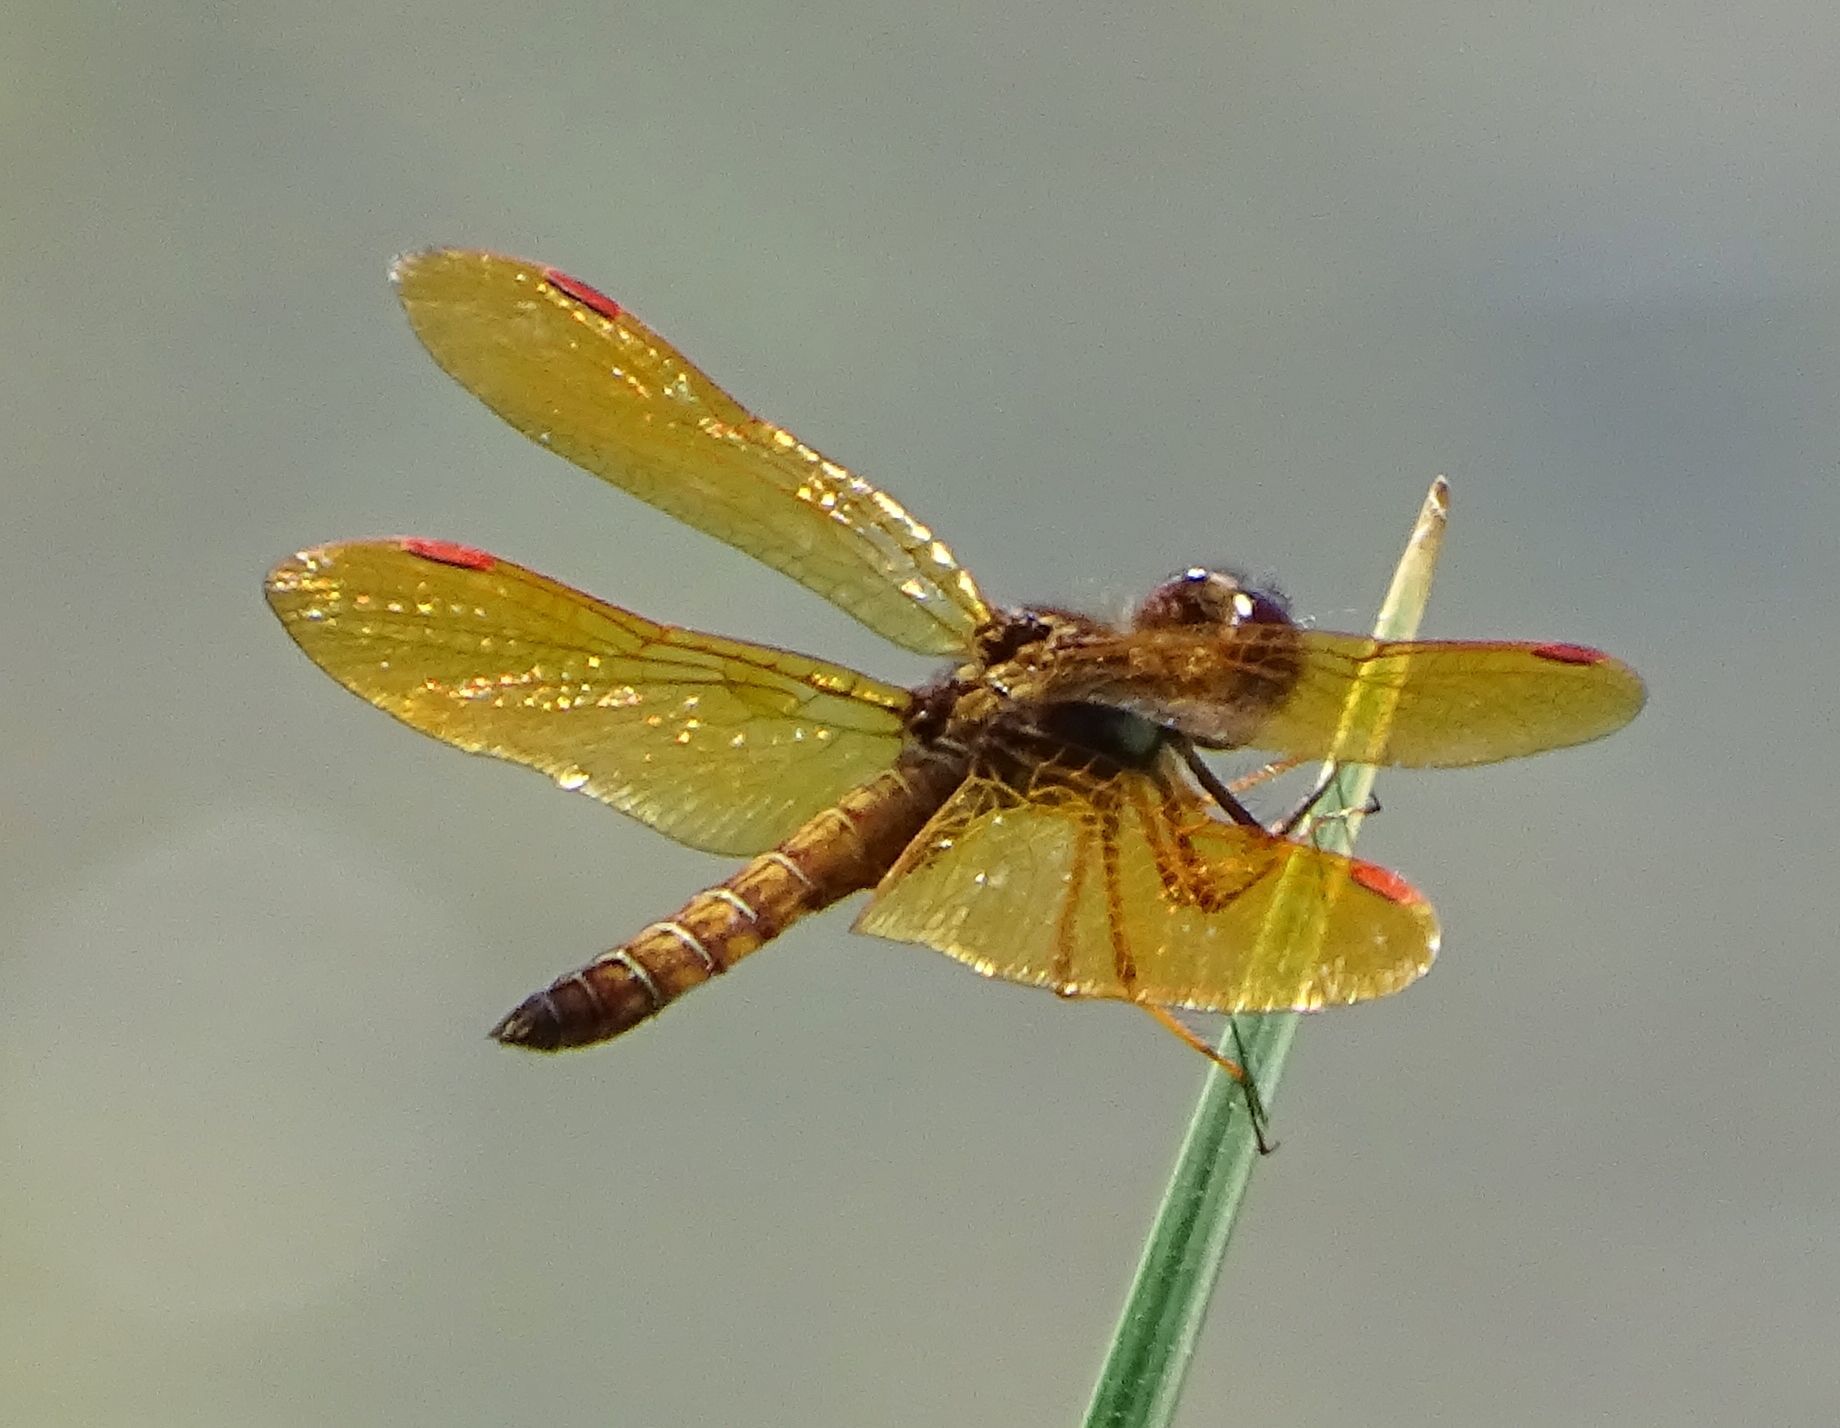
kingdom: Animalia
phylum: Arthropoda
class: Insecta
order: Odonata
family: Libellulidae
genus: Perithemis
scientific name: Perithemis tenera
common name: Eastern amberwing
